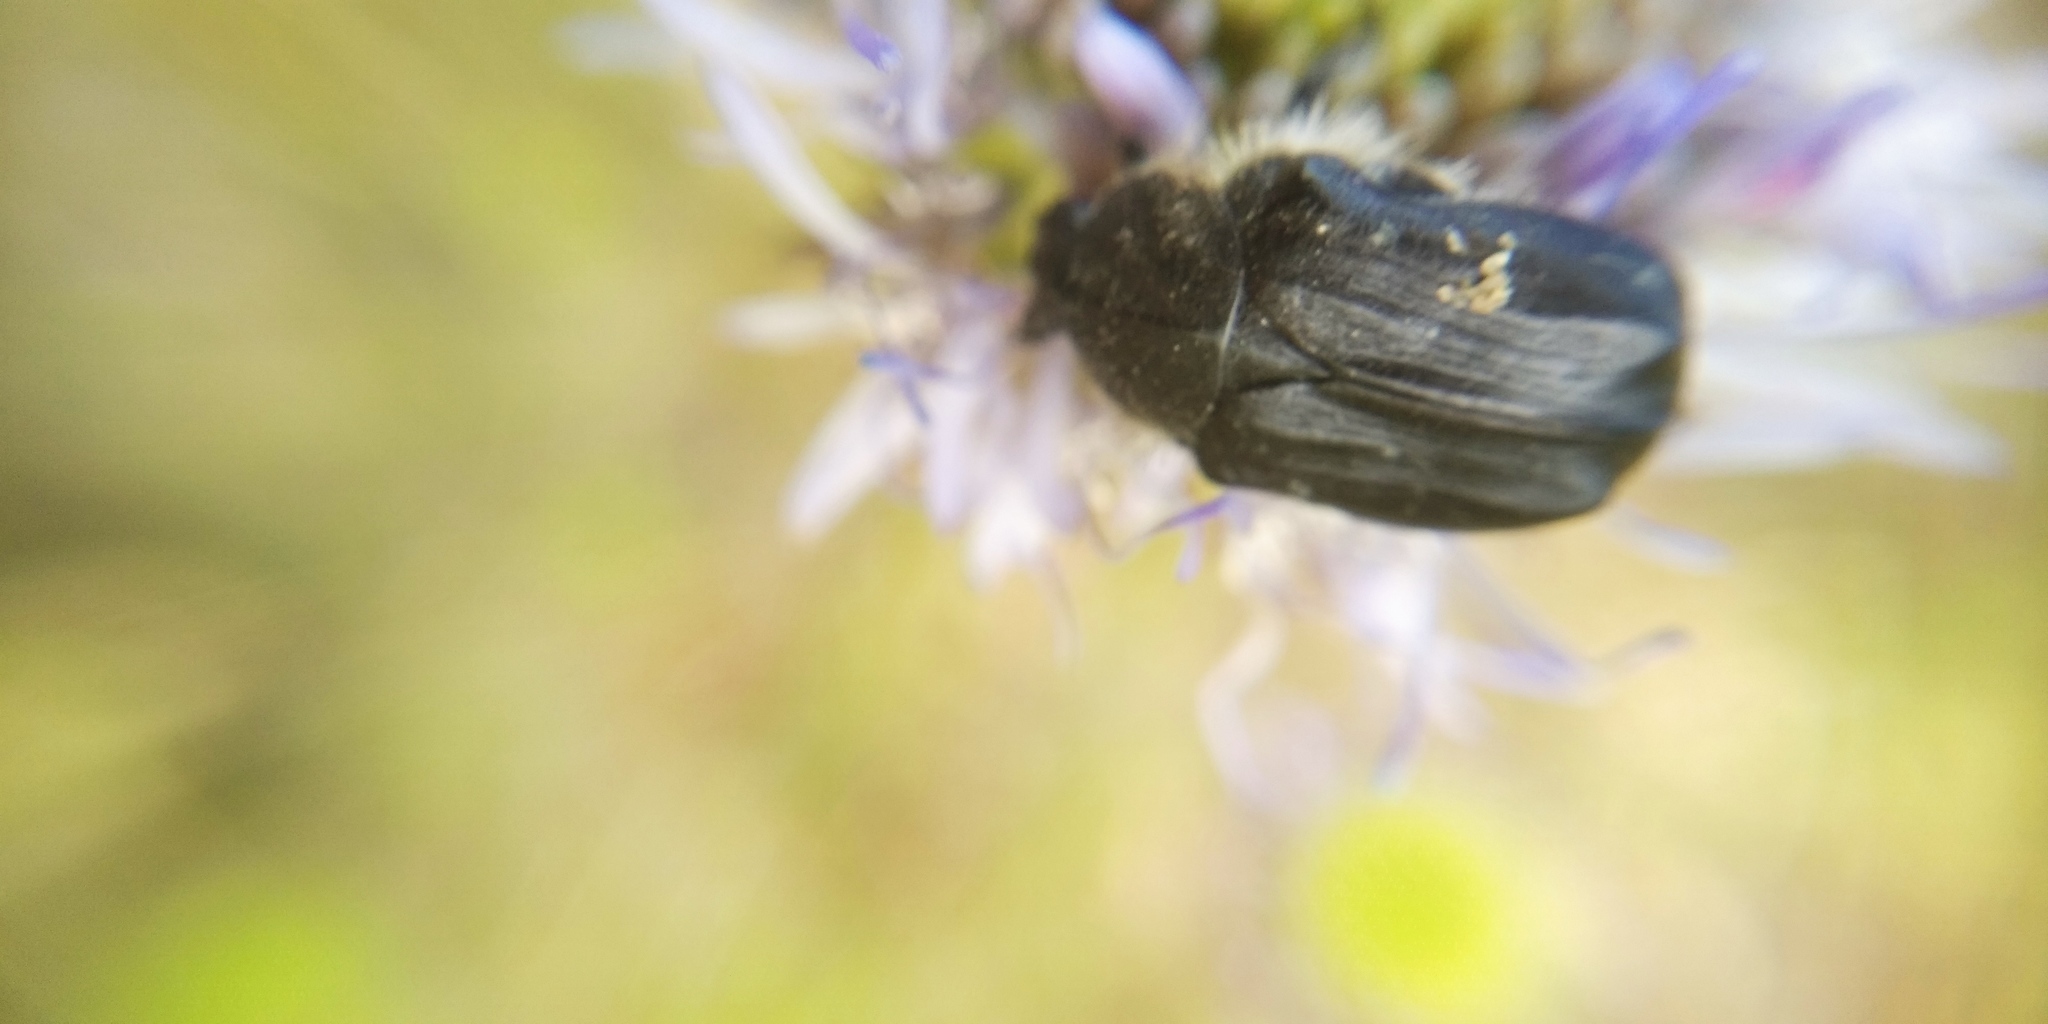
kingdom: Animalia
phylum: Arthropoda
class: Insecta
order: Coleoptera
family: Scarabaeidae
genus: Tropinota
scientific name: Tropinota hirta
